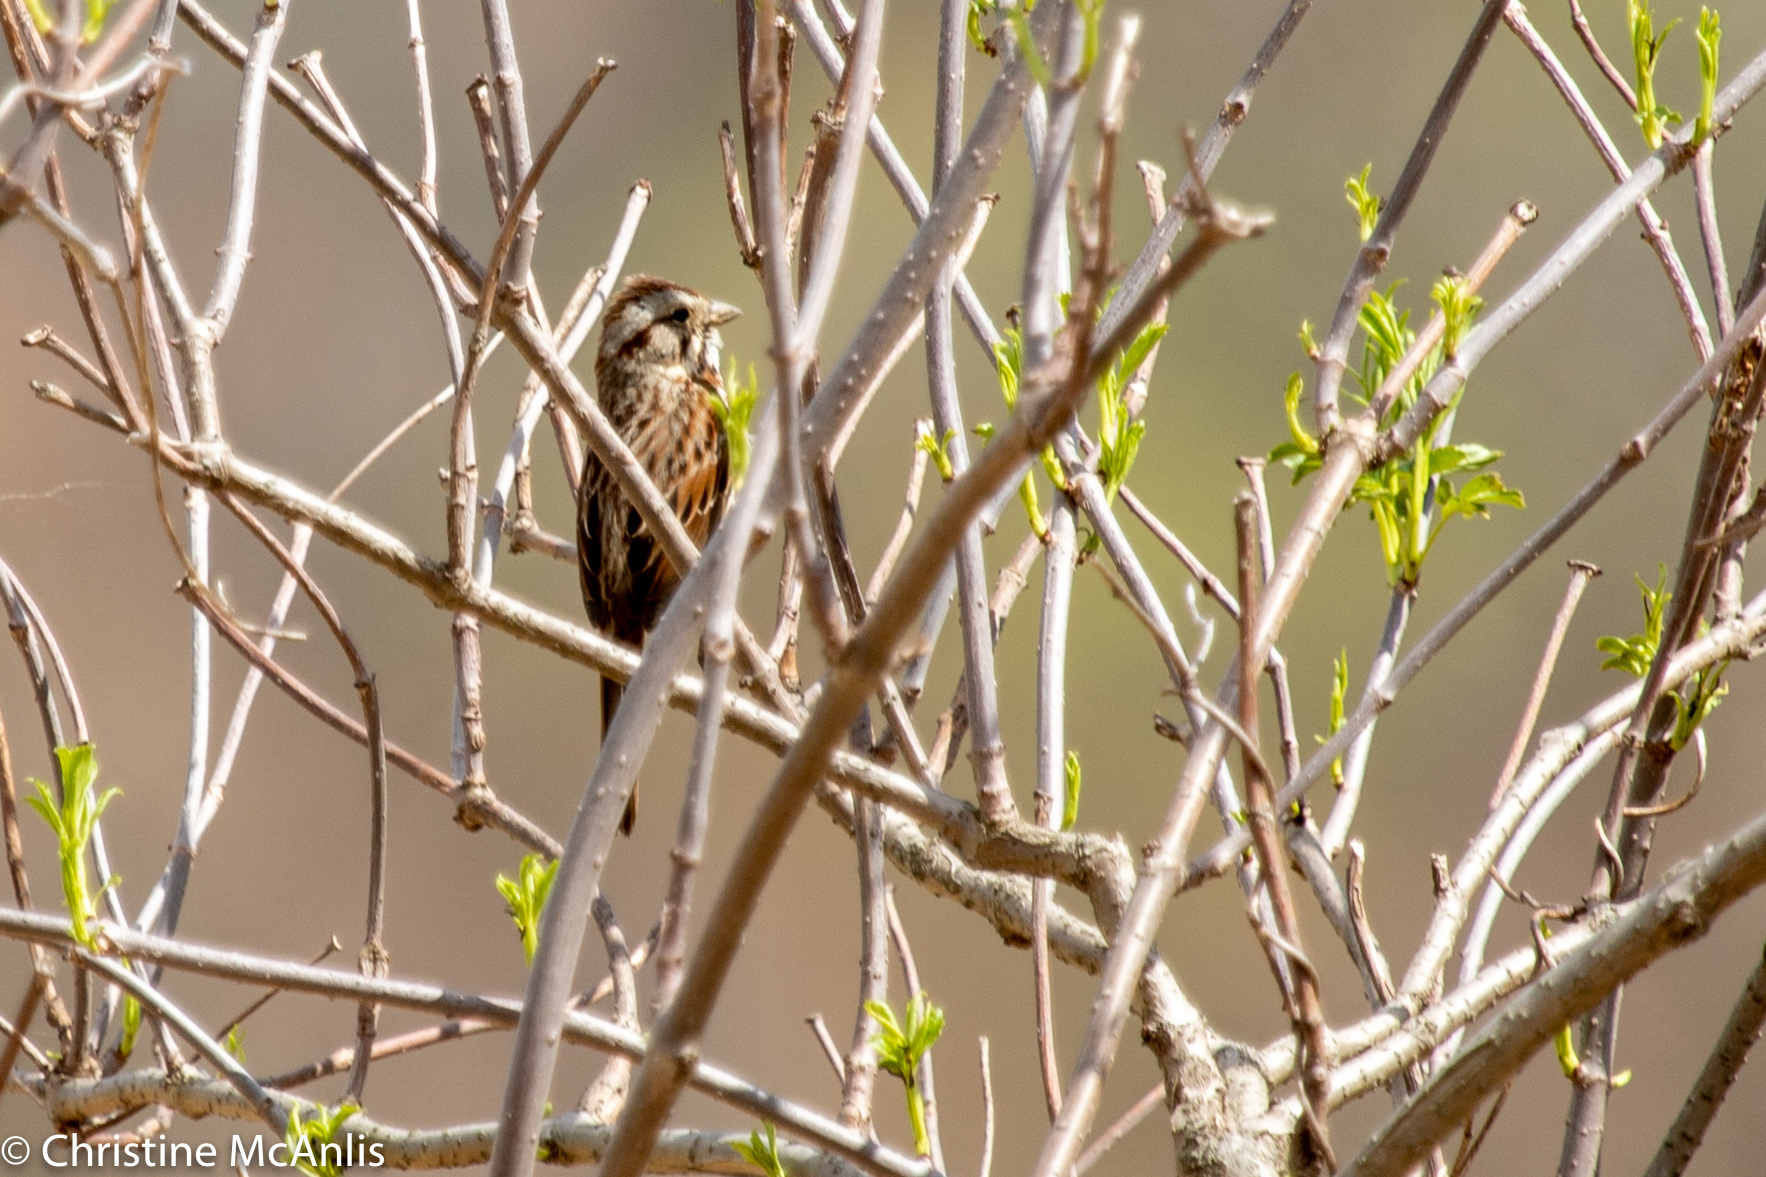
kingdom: Animalia
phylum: Chordata
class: Aves
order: Passeriformes
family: Passerellidae
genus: Melospiza
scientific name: Melospiza melodia
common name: Song sparrow
